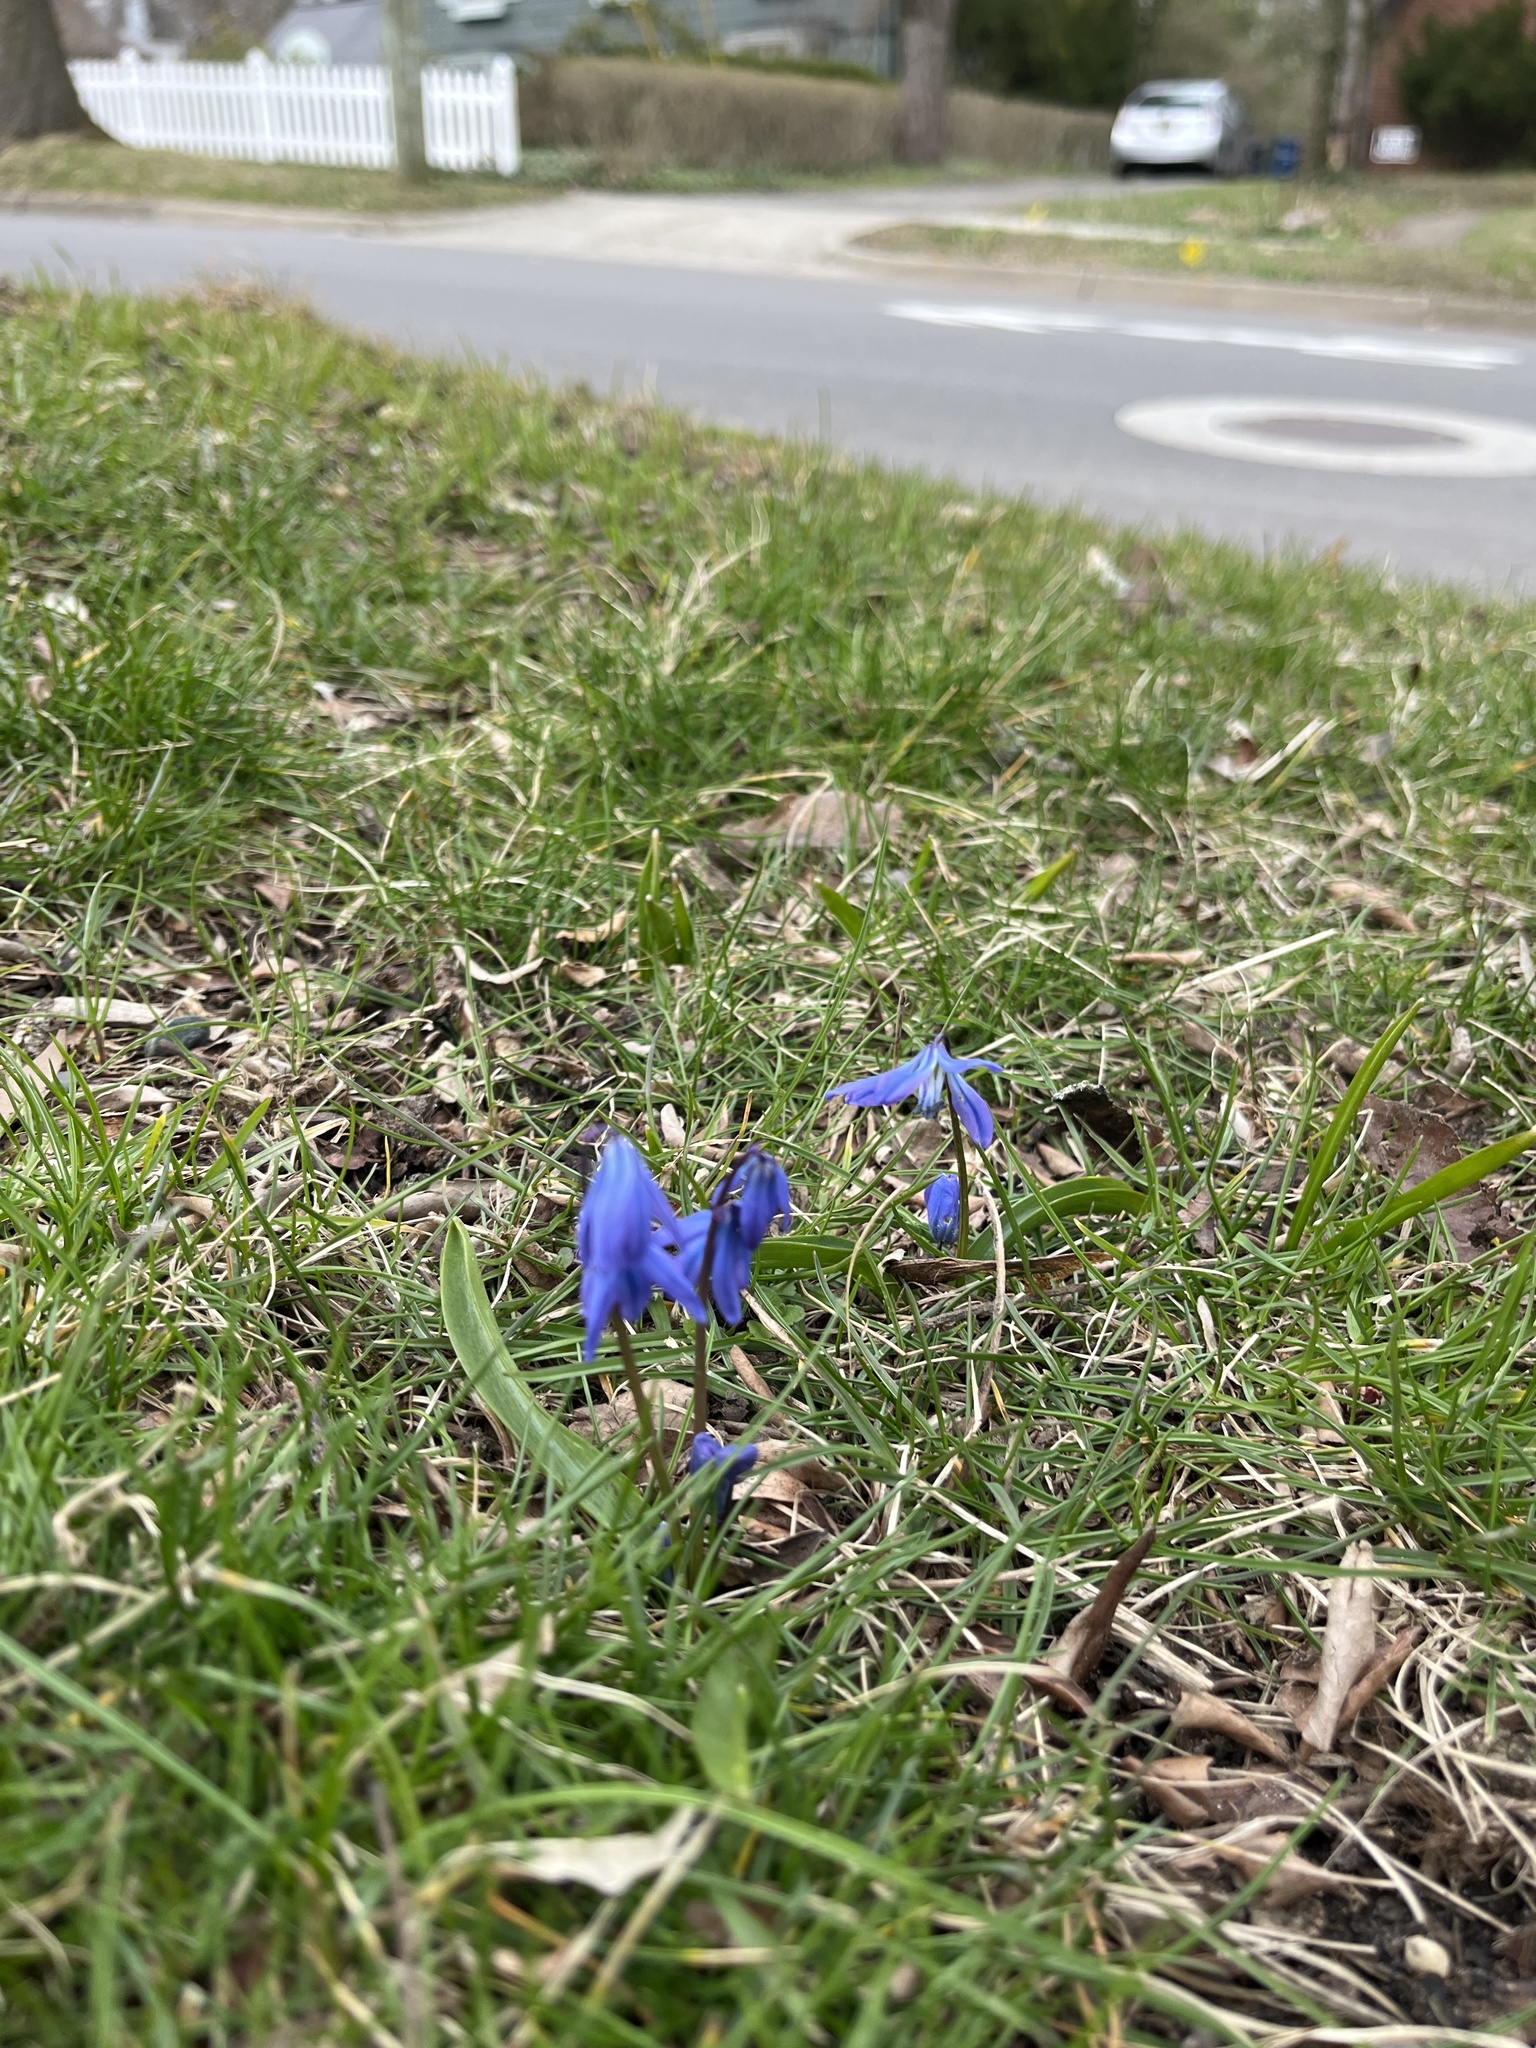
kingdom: Plantae
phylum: Tracheophyta
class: Liliopsida
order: Asparagales
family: Asparagaceae
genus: Scilla
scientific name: Scilla siberica
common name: Siberian squill
